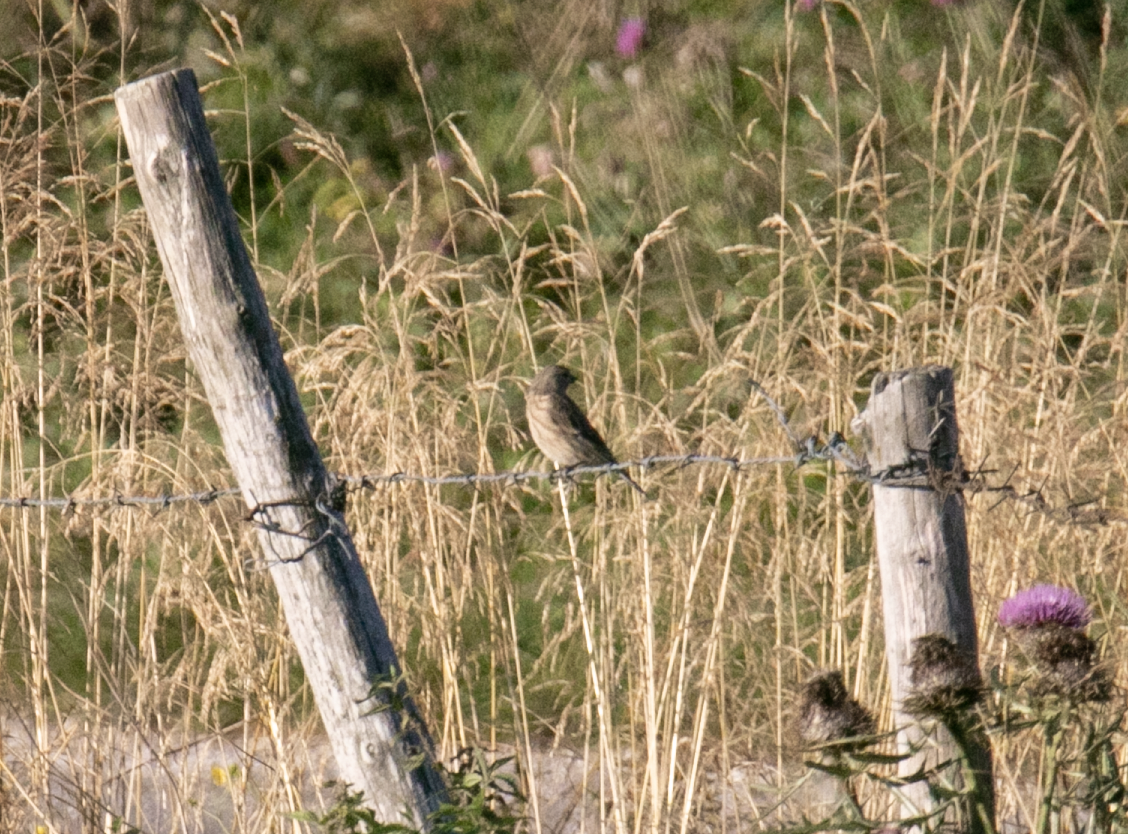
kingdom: Animalia
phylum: Chordata
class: Aves
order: Passeriformes
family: Fringillidae
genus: Linaria
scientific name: Linaria cannabina
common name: Common linnet
